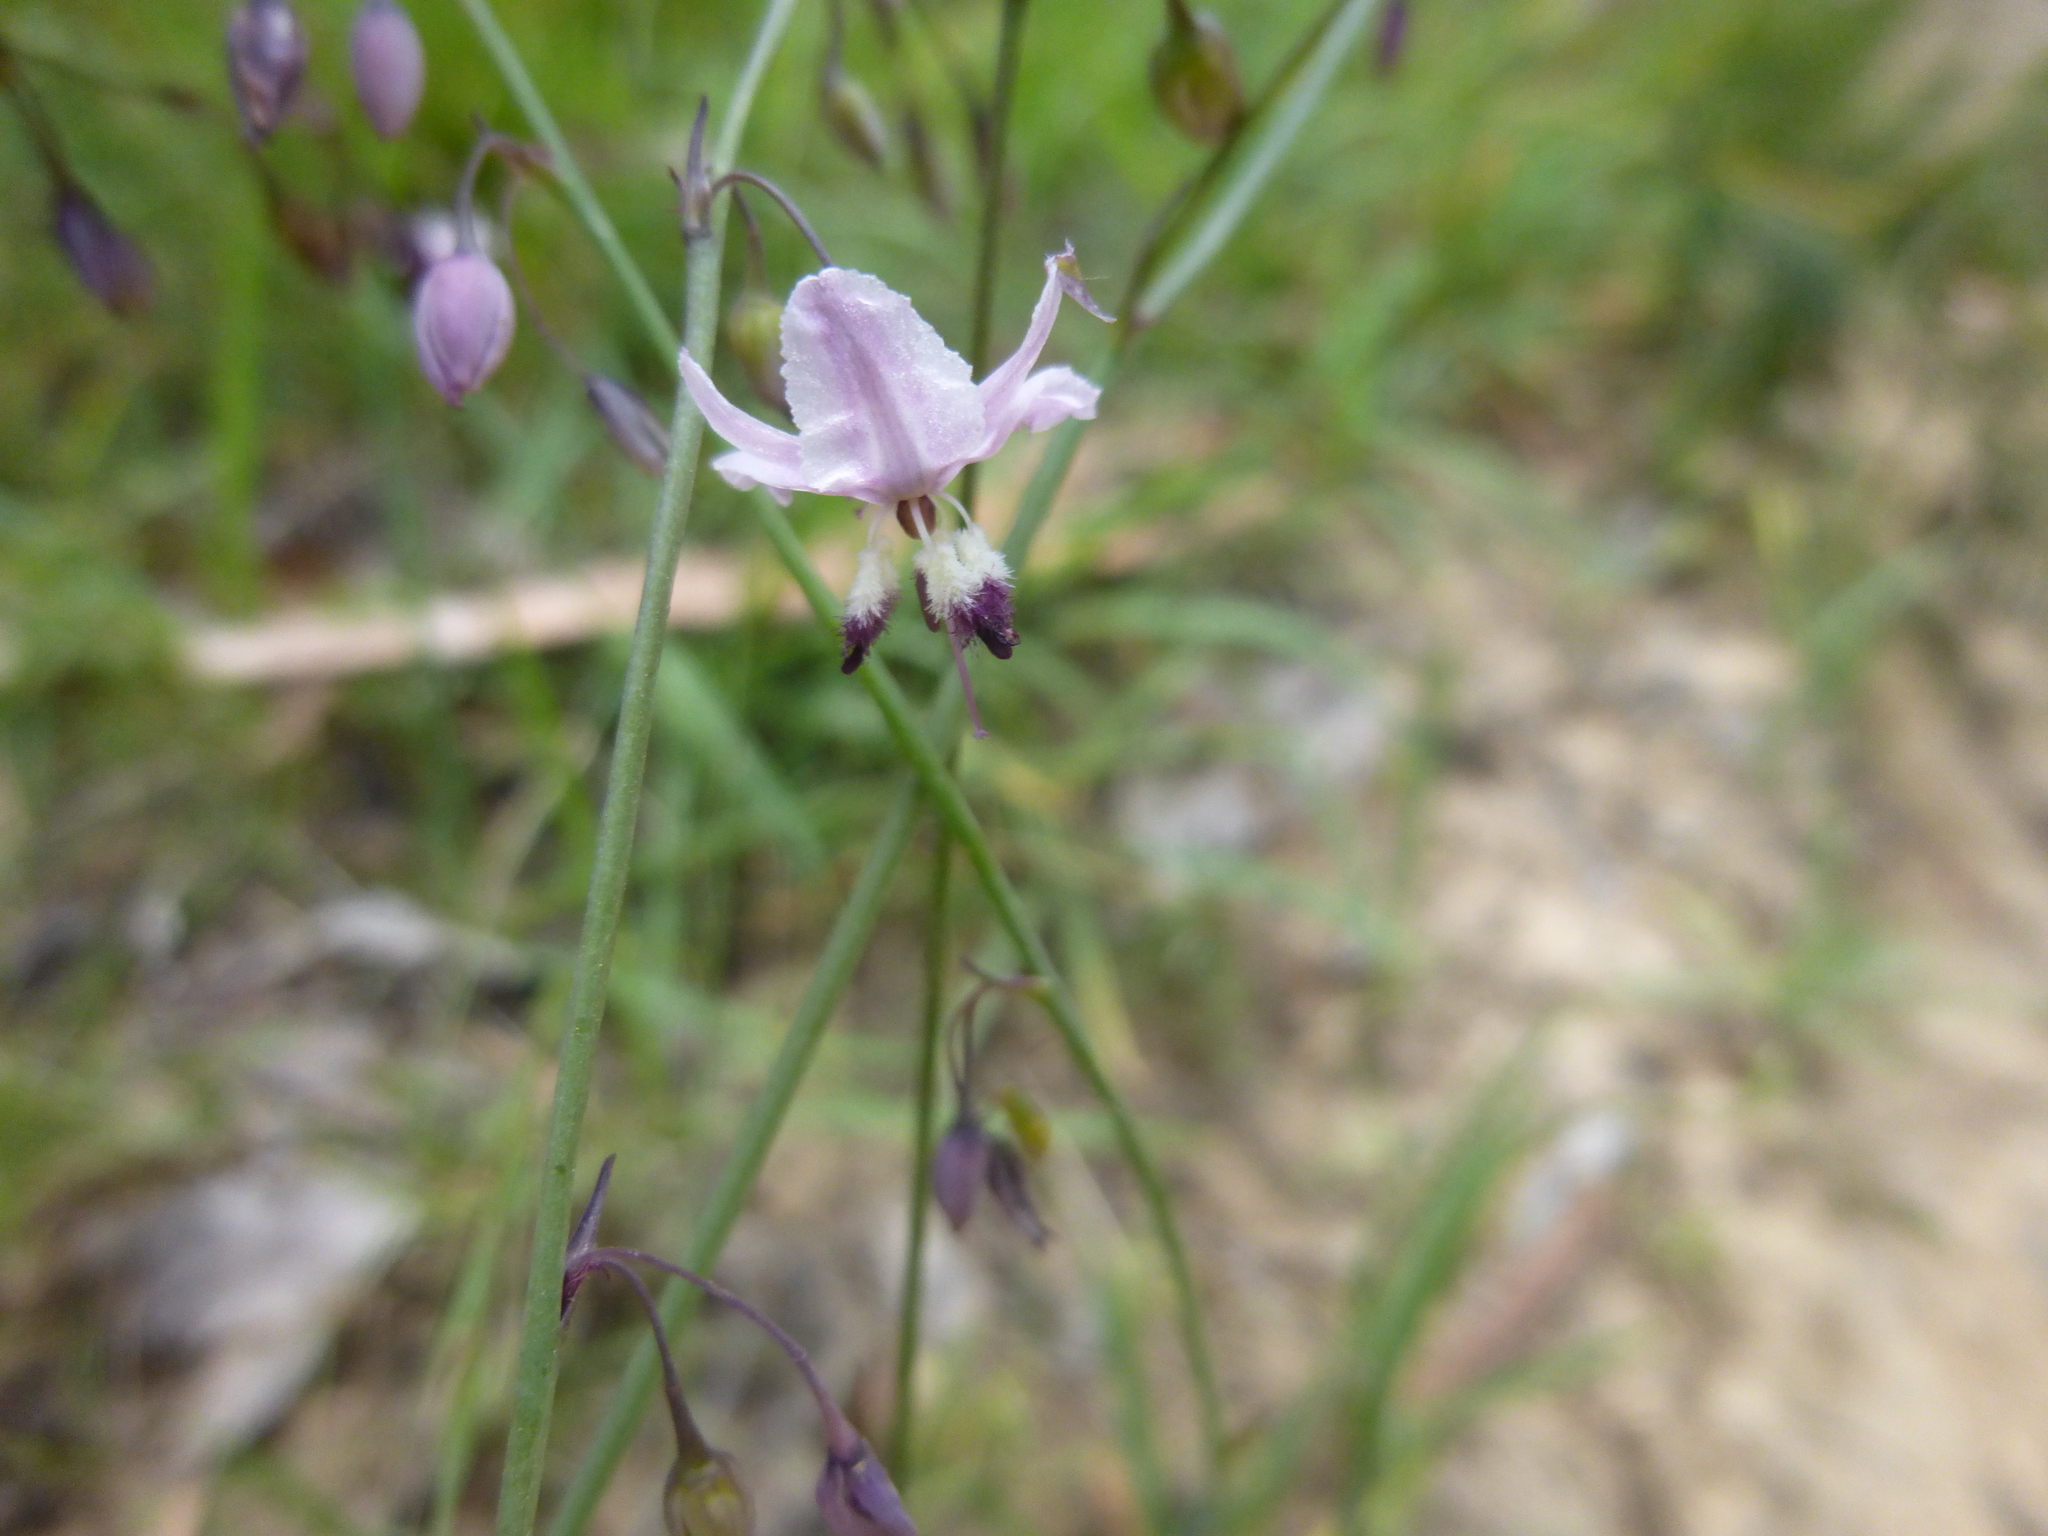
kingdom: Plantae
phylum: Tracheophyta
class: Liliopsida
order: Asparagales
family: Asparagaceae
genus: Arthropodium
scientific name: Arthropodium milleflorum
